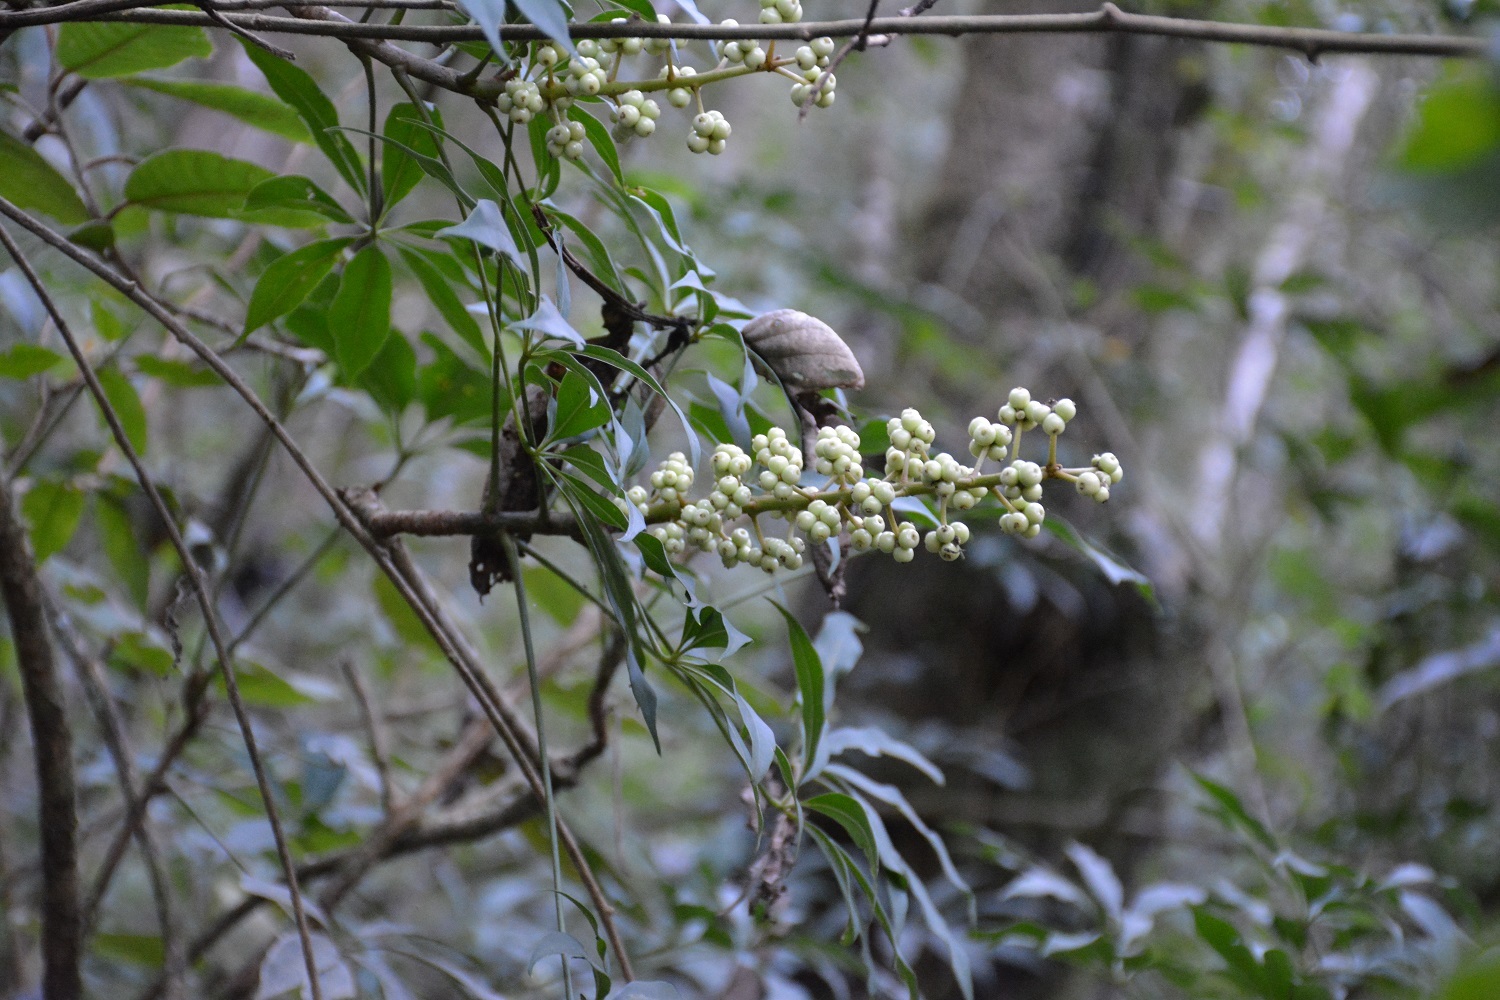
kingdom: Plantae
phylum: Tracheophyta
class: Magnoliopsida
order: Apiales
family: Araliaceae
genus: Oreopanax
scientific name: Oreopanax xalapensis
